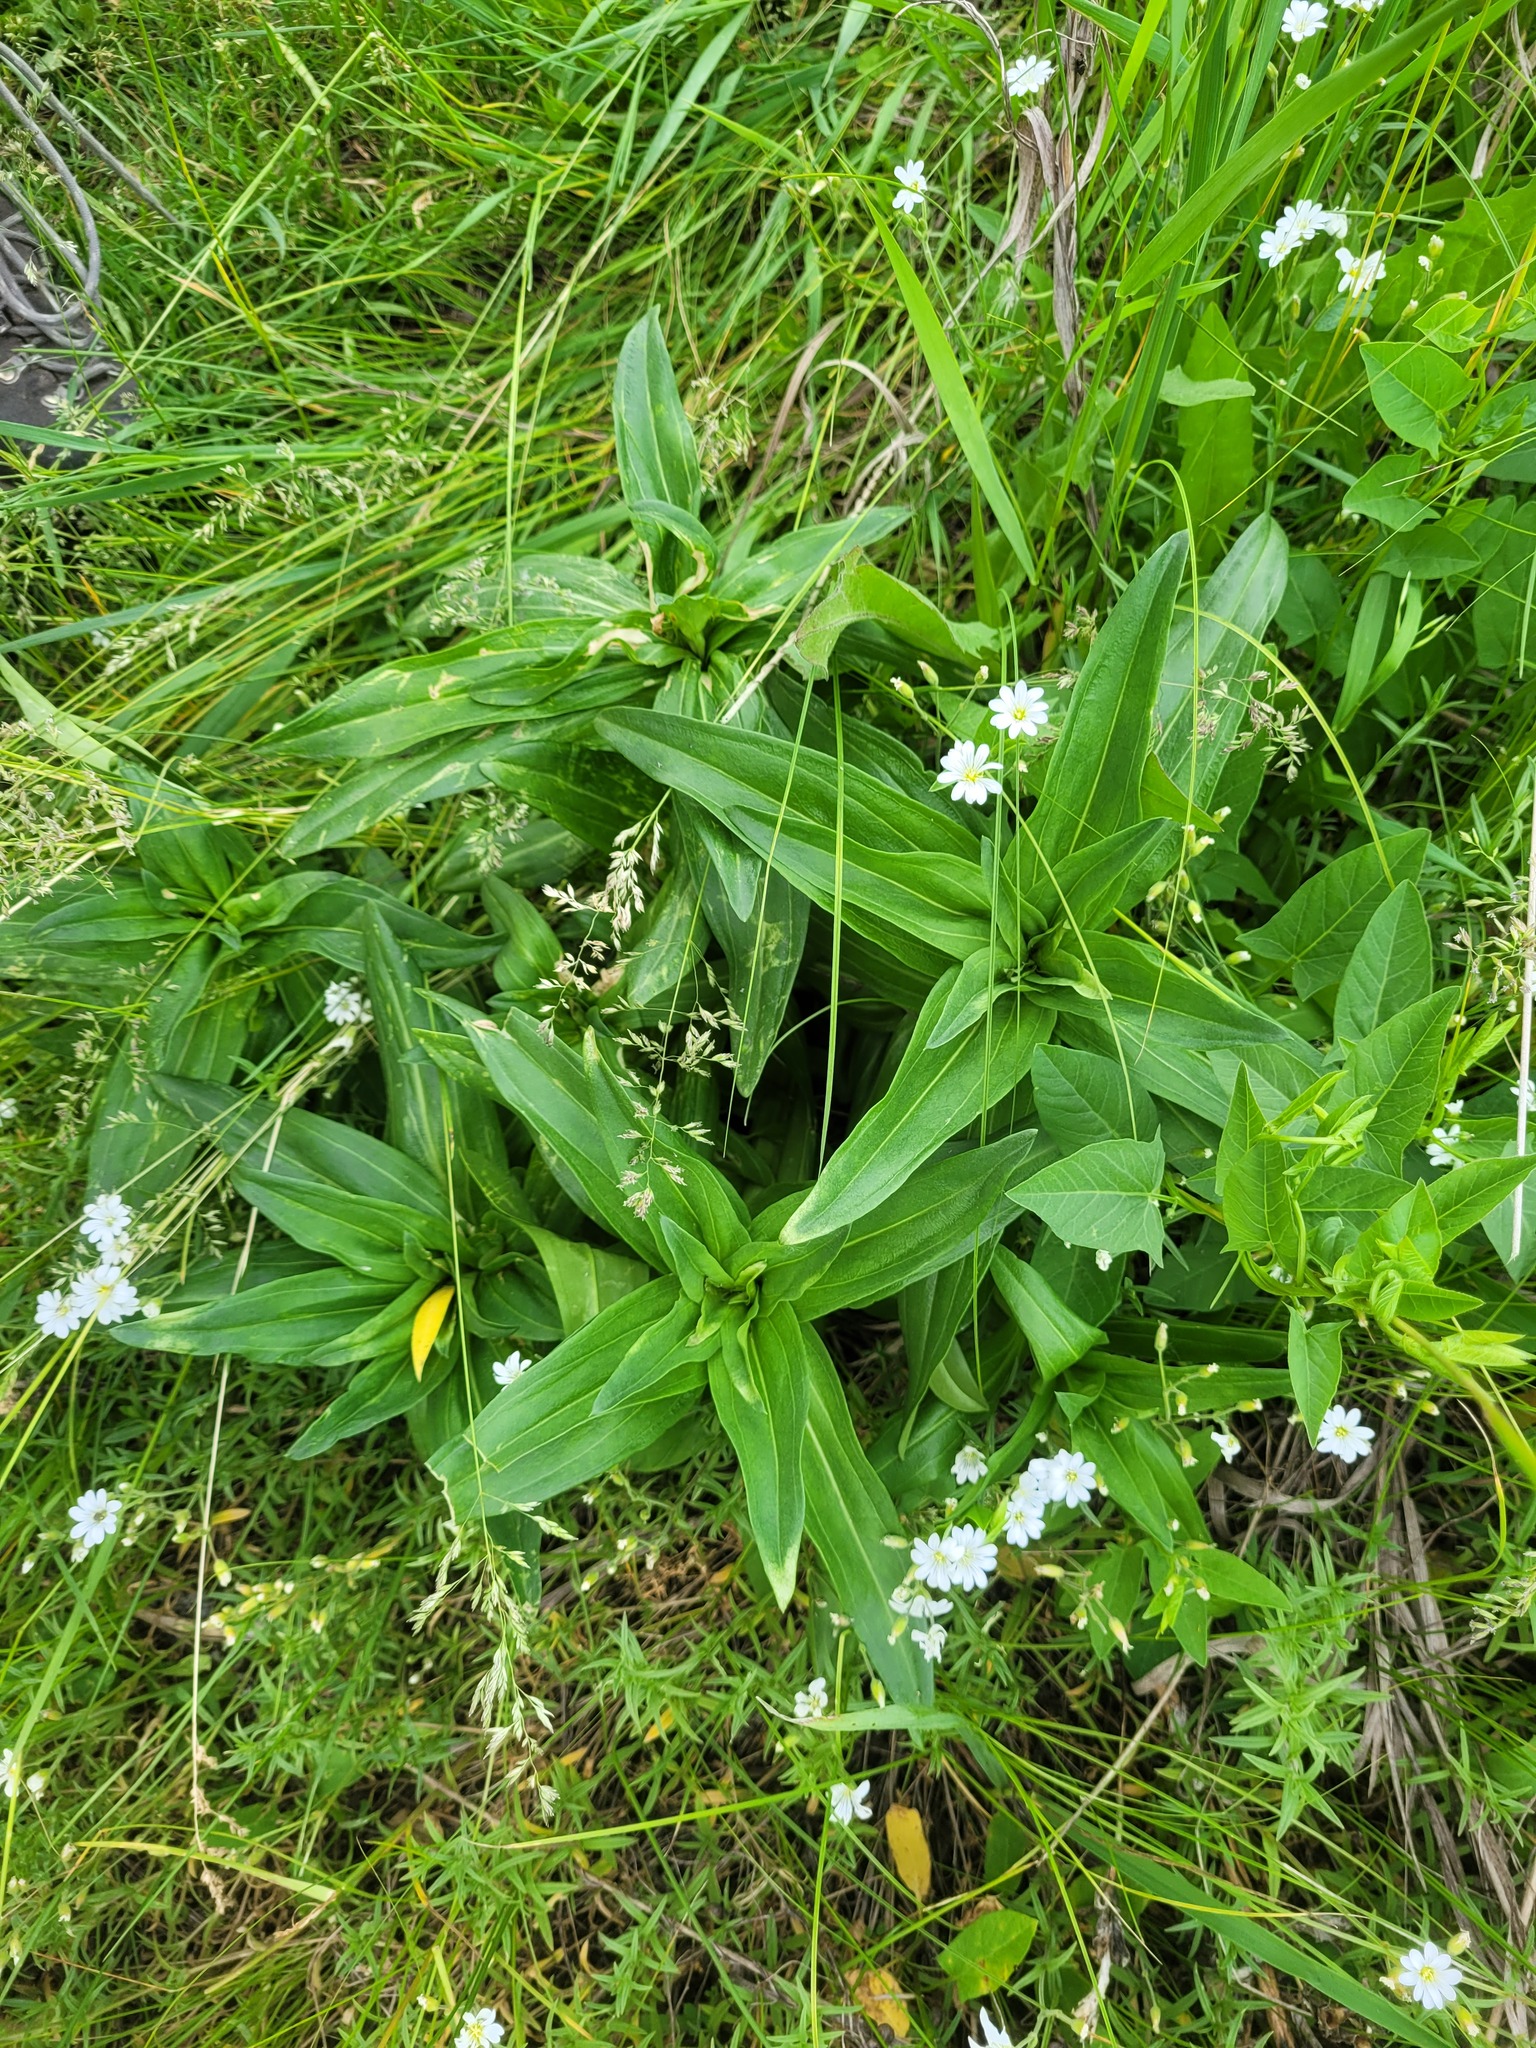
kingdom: Plantae
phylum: Tracheophyta
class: Magnoliopsida
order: Gentianales
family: Gentianaceae
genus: Gentiana
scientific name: Gentiana cruciata
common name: Cross gentian
